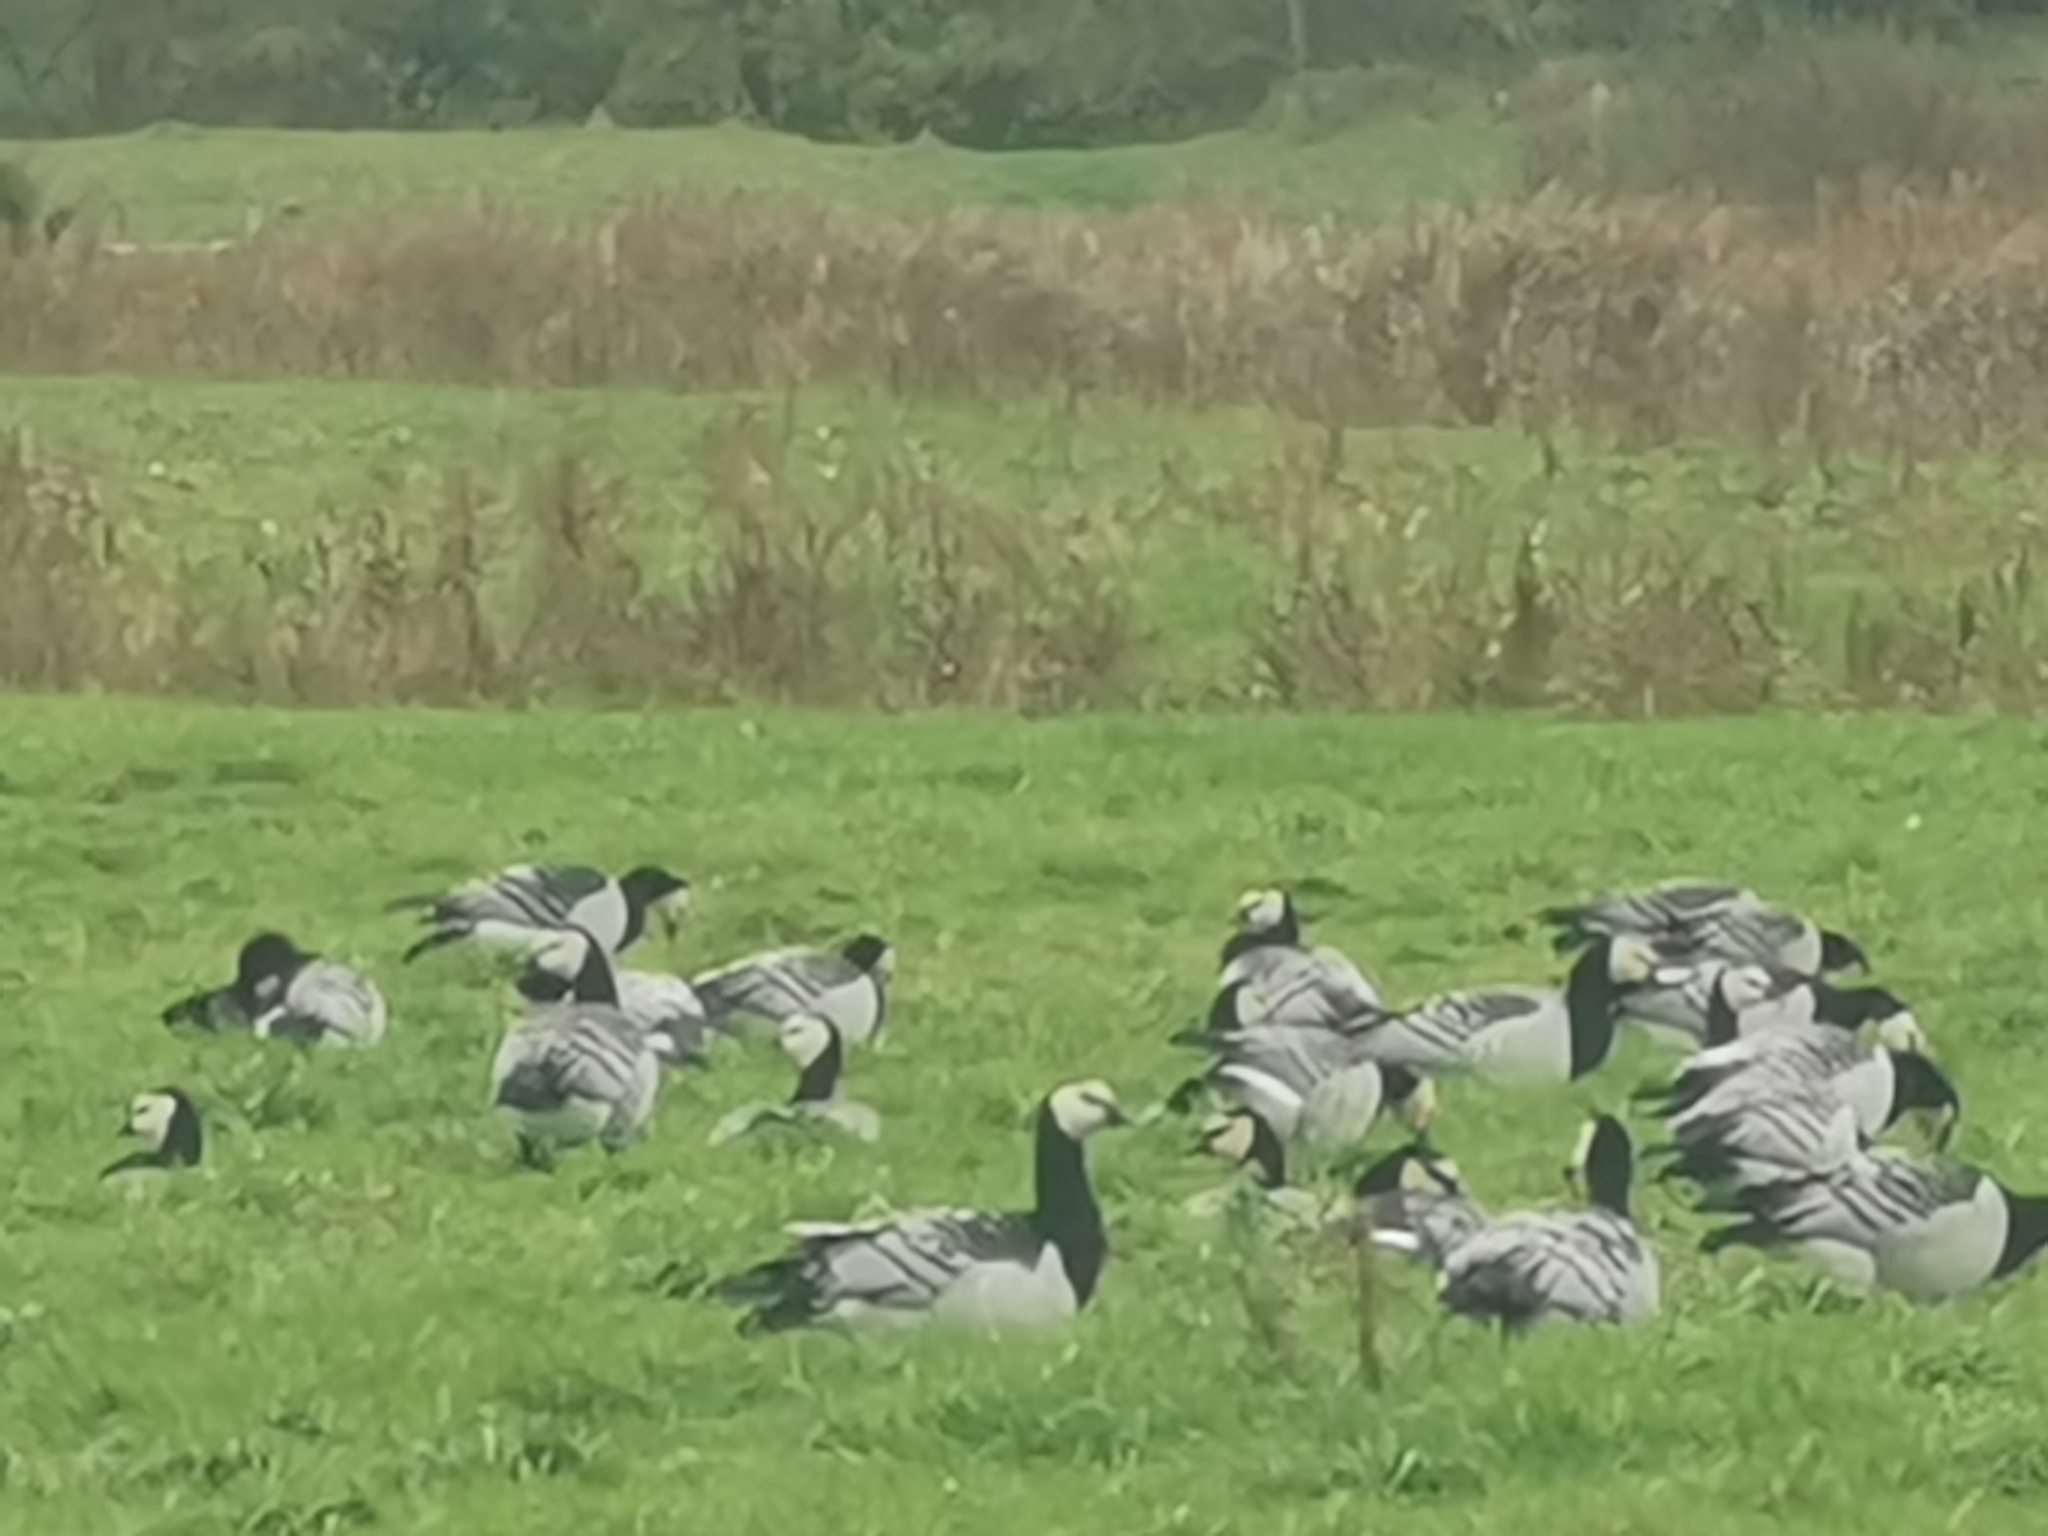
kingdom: Animalia
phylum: Chordata
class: Aves
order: Anseriformes
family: Anatidae
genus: Branta
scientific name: Branta leucopsis
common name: Barnacle goose
